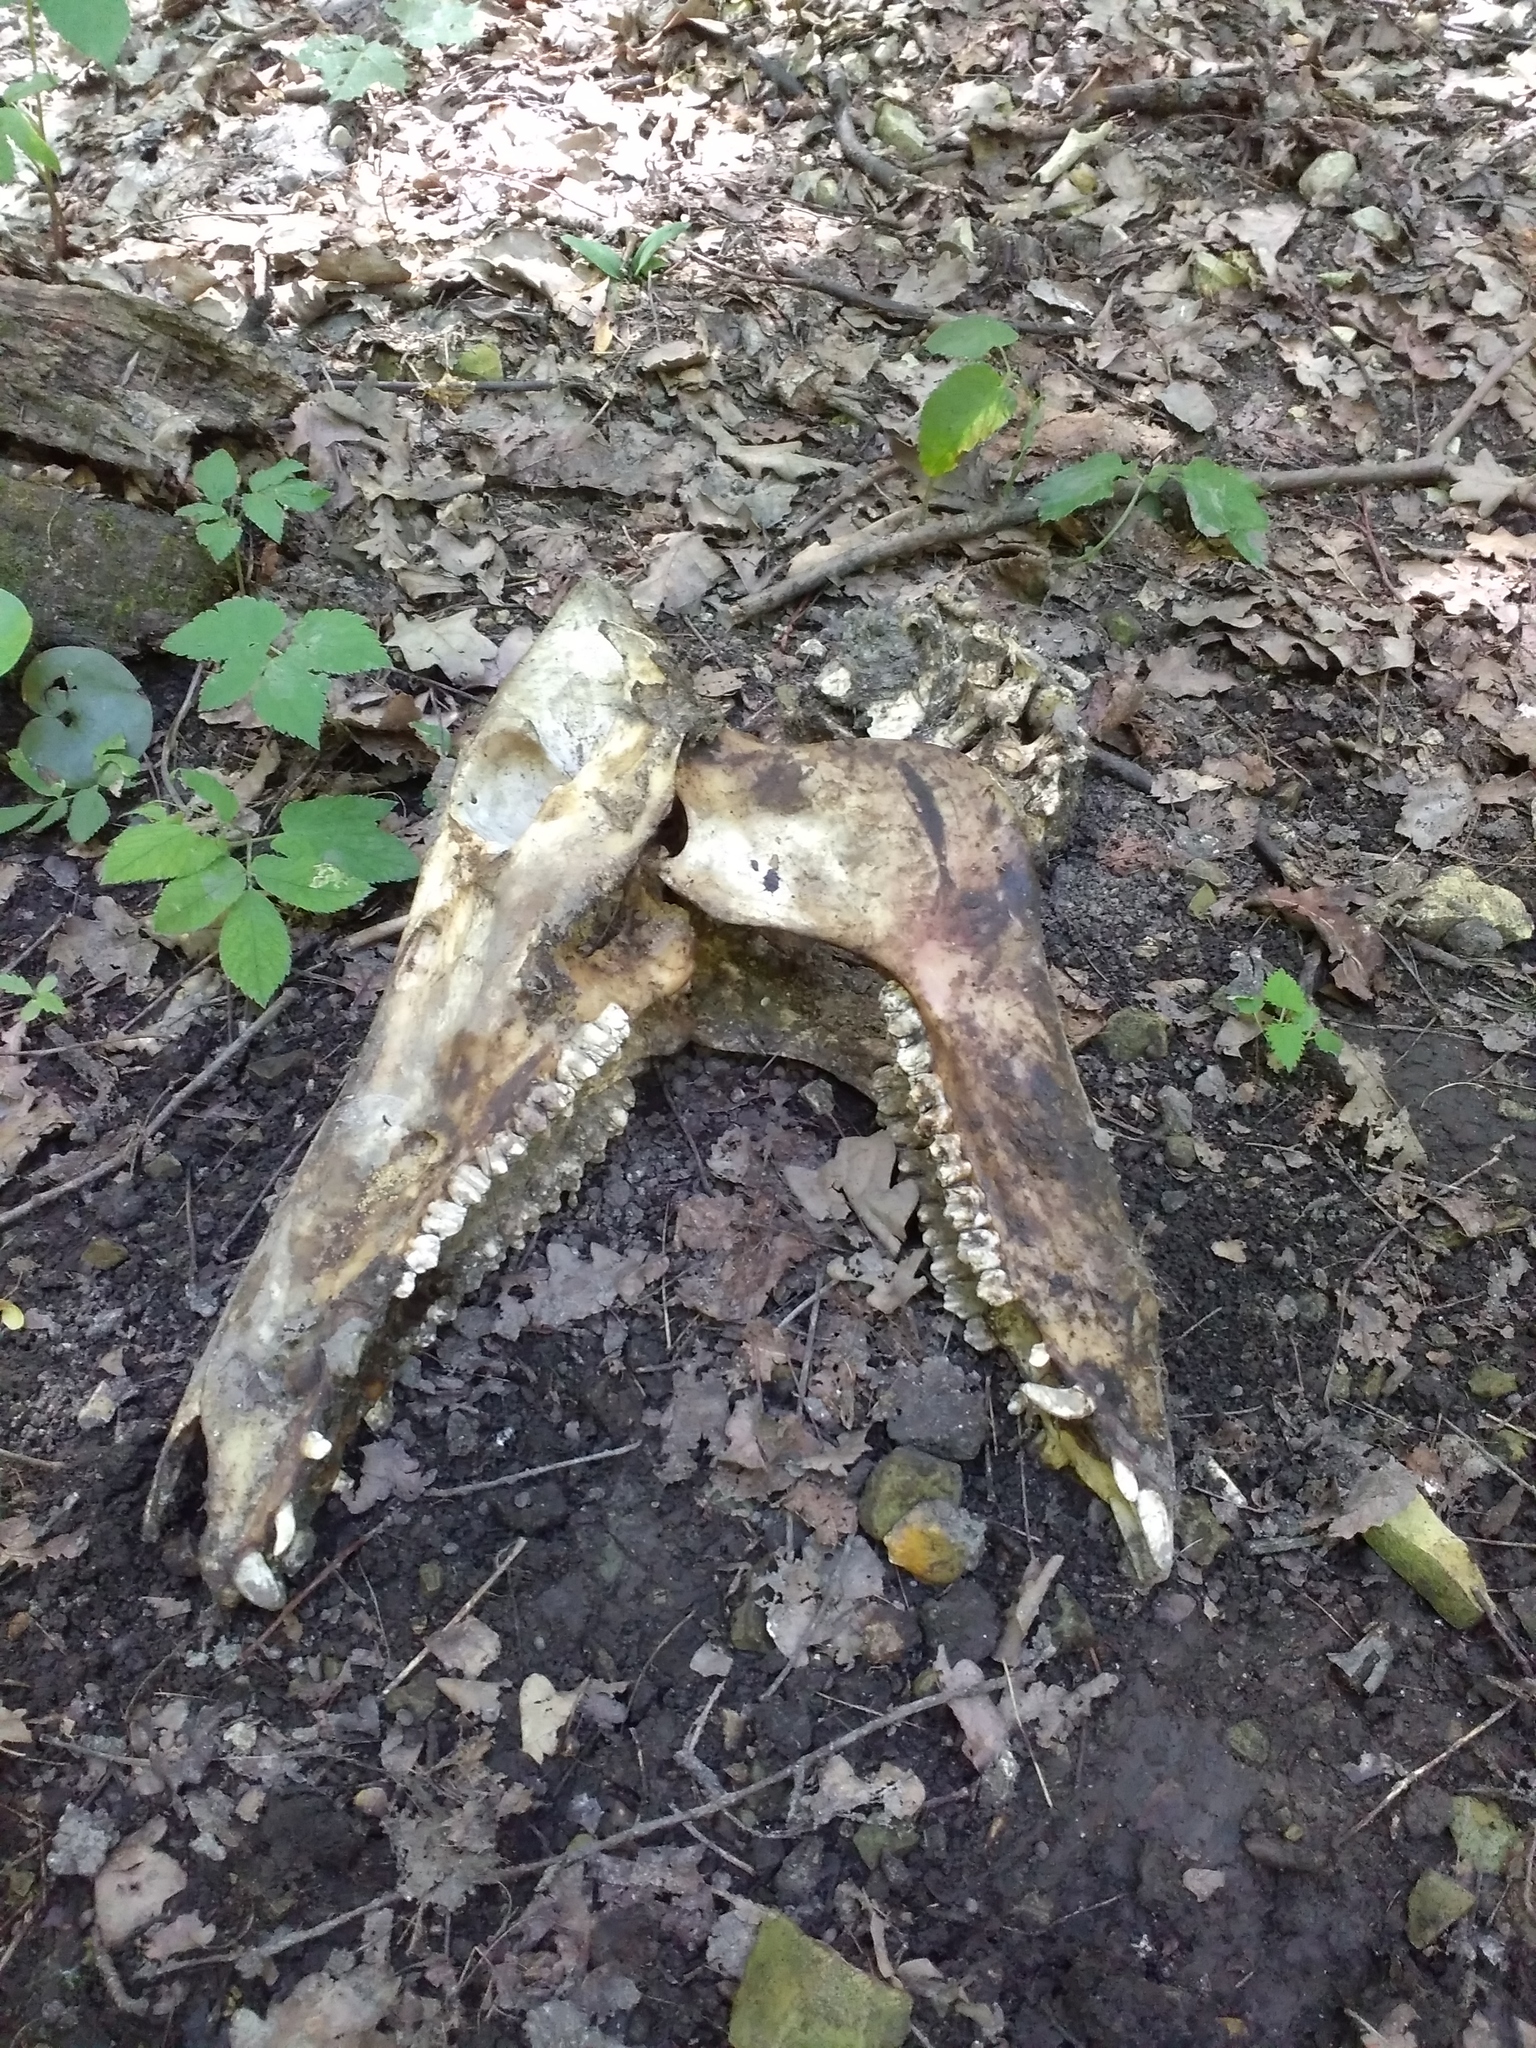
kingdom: Animalia
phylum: Chordata
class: Mammalia
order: Artiodactyla
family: Suidae
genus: Sus
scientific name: Sus scrofa
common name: Wild boar
